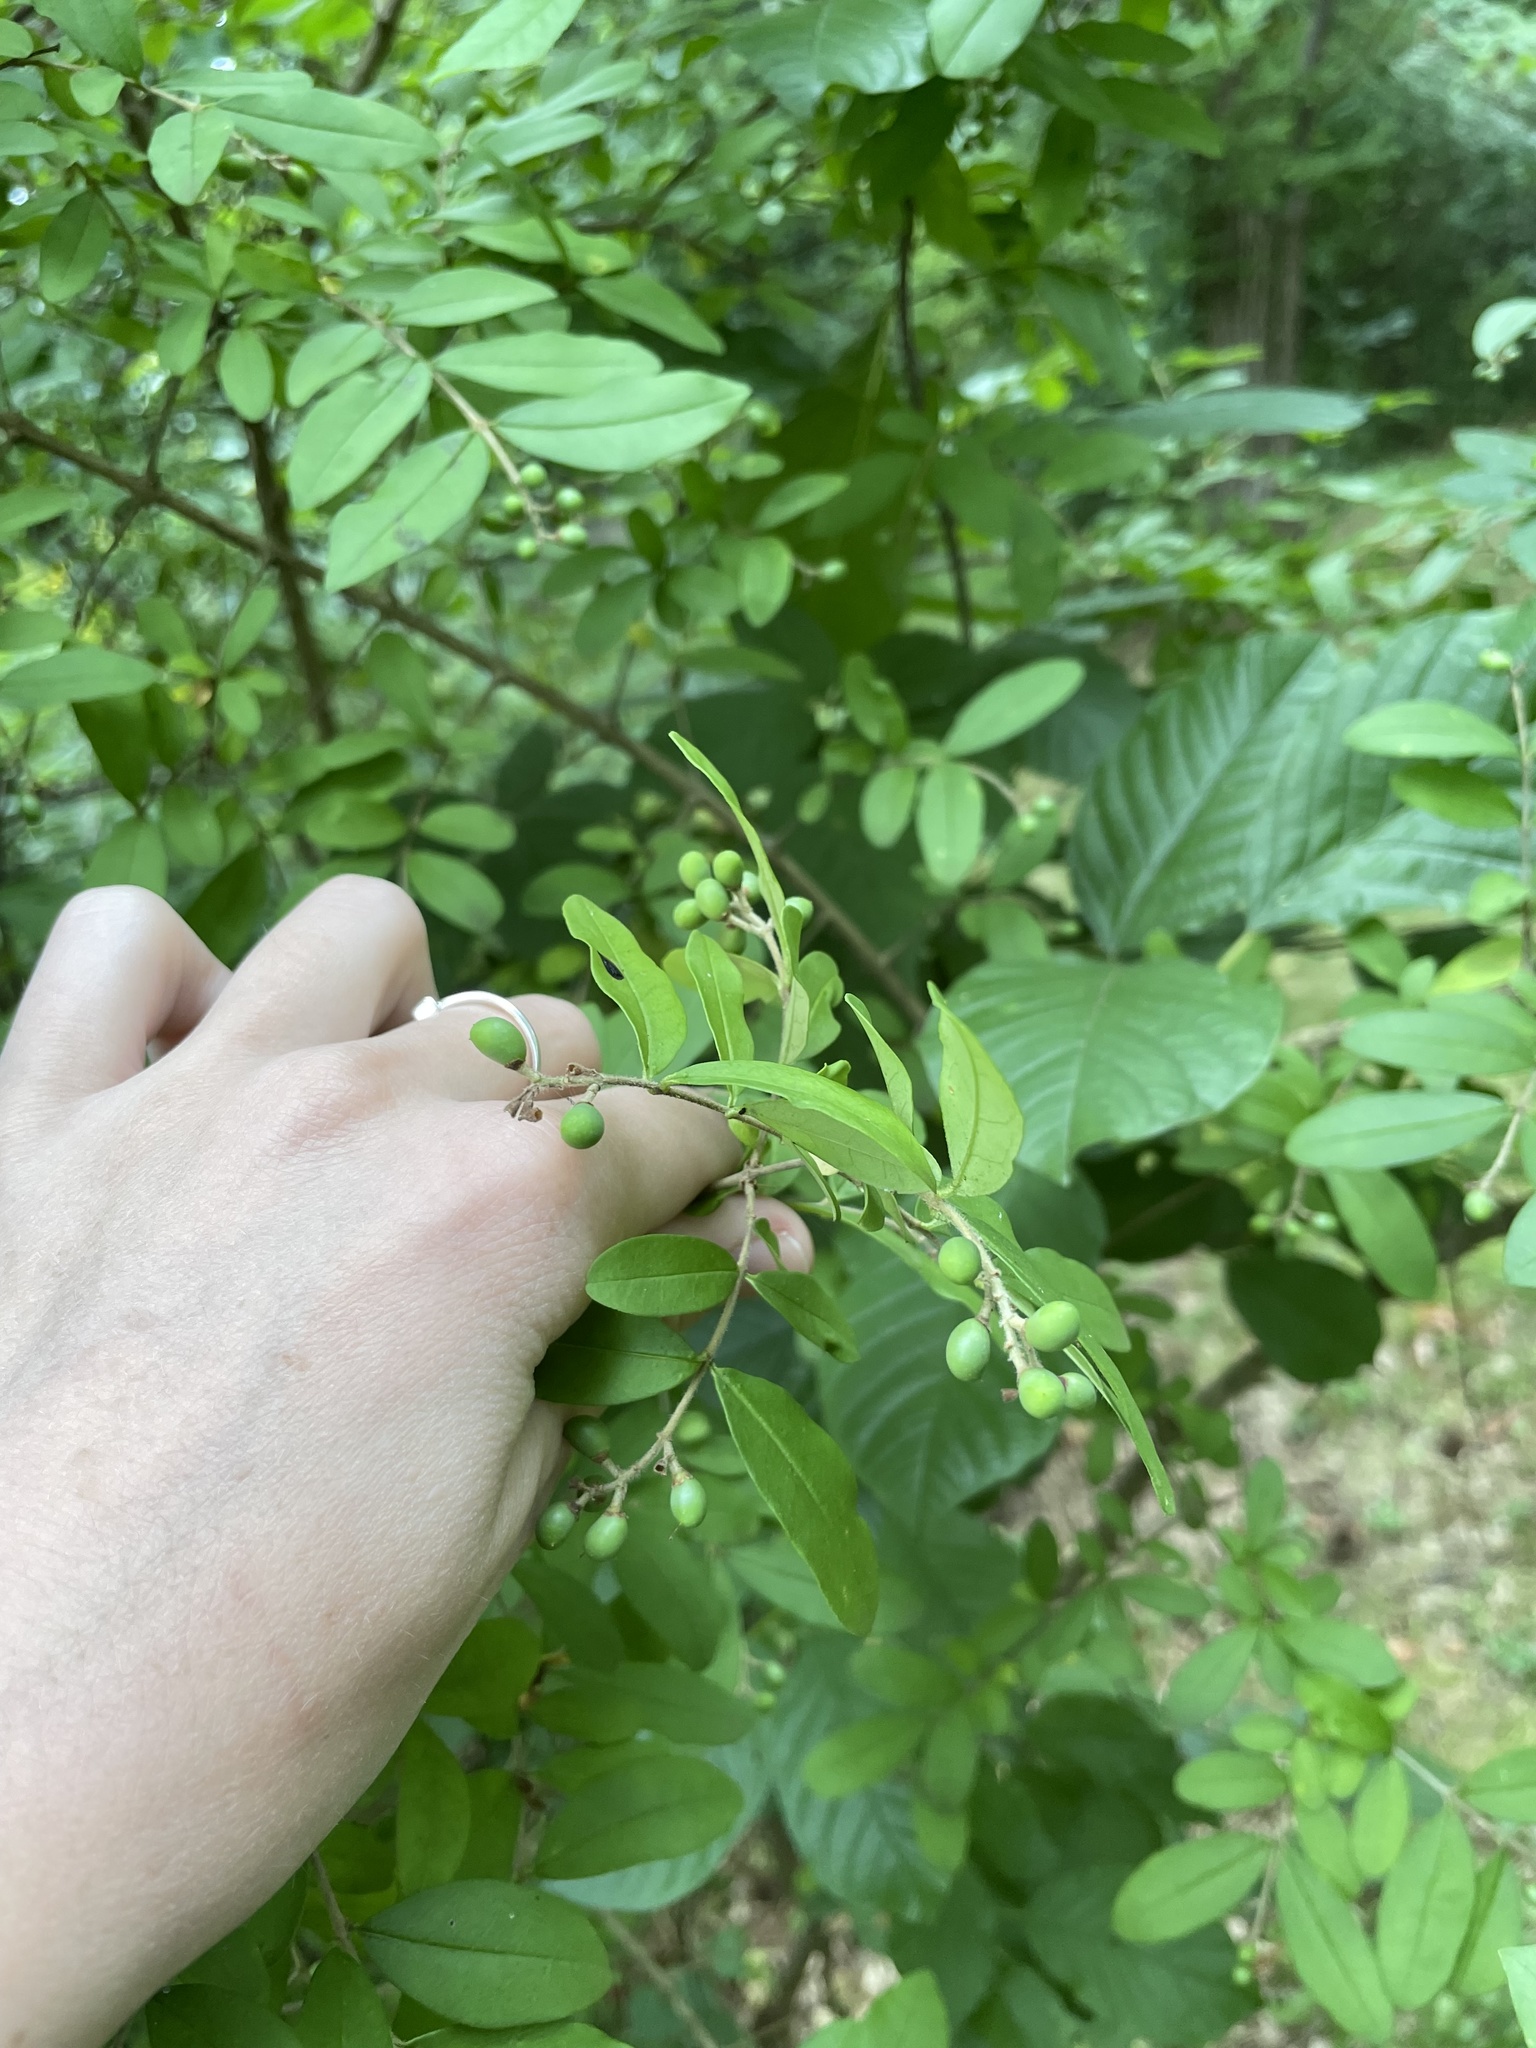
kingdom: Plantae
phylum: Tracheophyta
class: Magnoliopsida
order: Lamiales
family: Oleaceae
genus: Ligustrum
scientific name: Ligustrum obtusifolium
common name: Border privet
